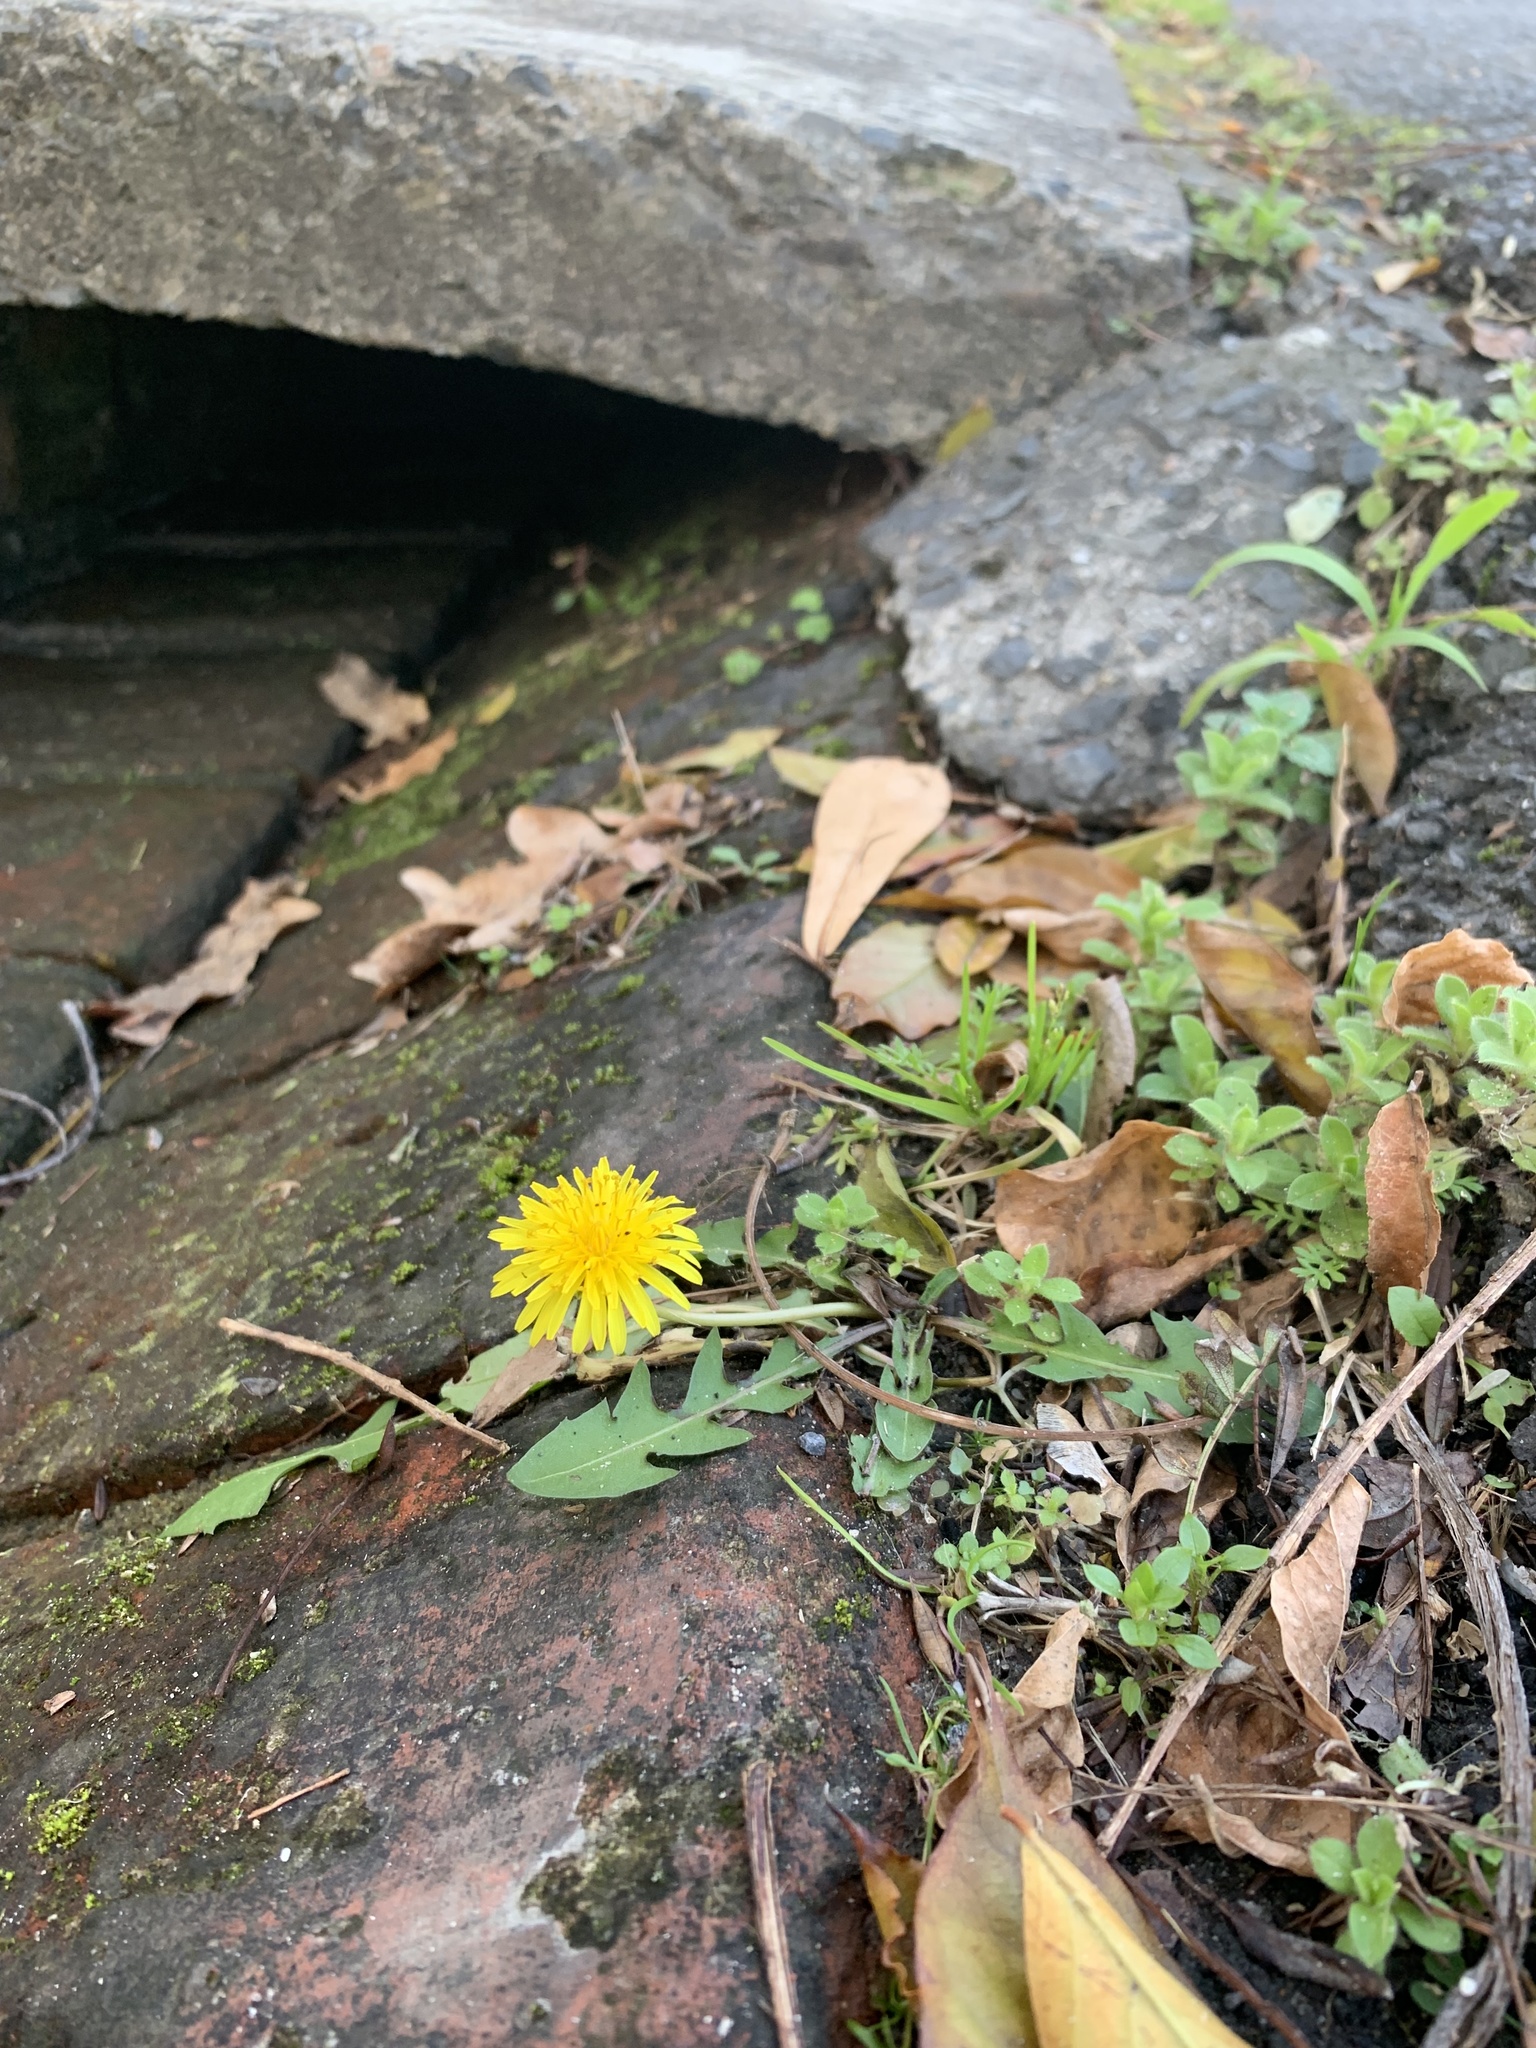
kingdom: Plantae
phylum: Tracheophyta
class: Magnoliopsida
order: Asterales
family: Asteraceae
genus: Taraxacum
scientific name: Taraxacum officinale
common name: Common dandelion
